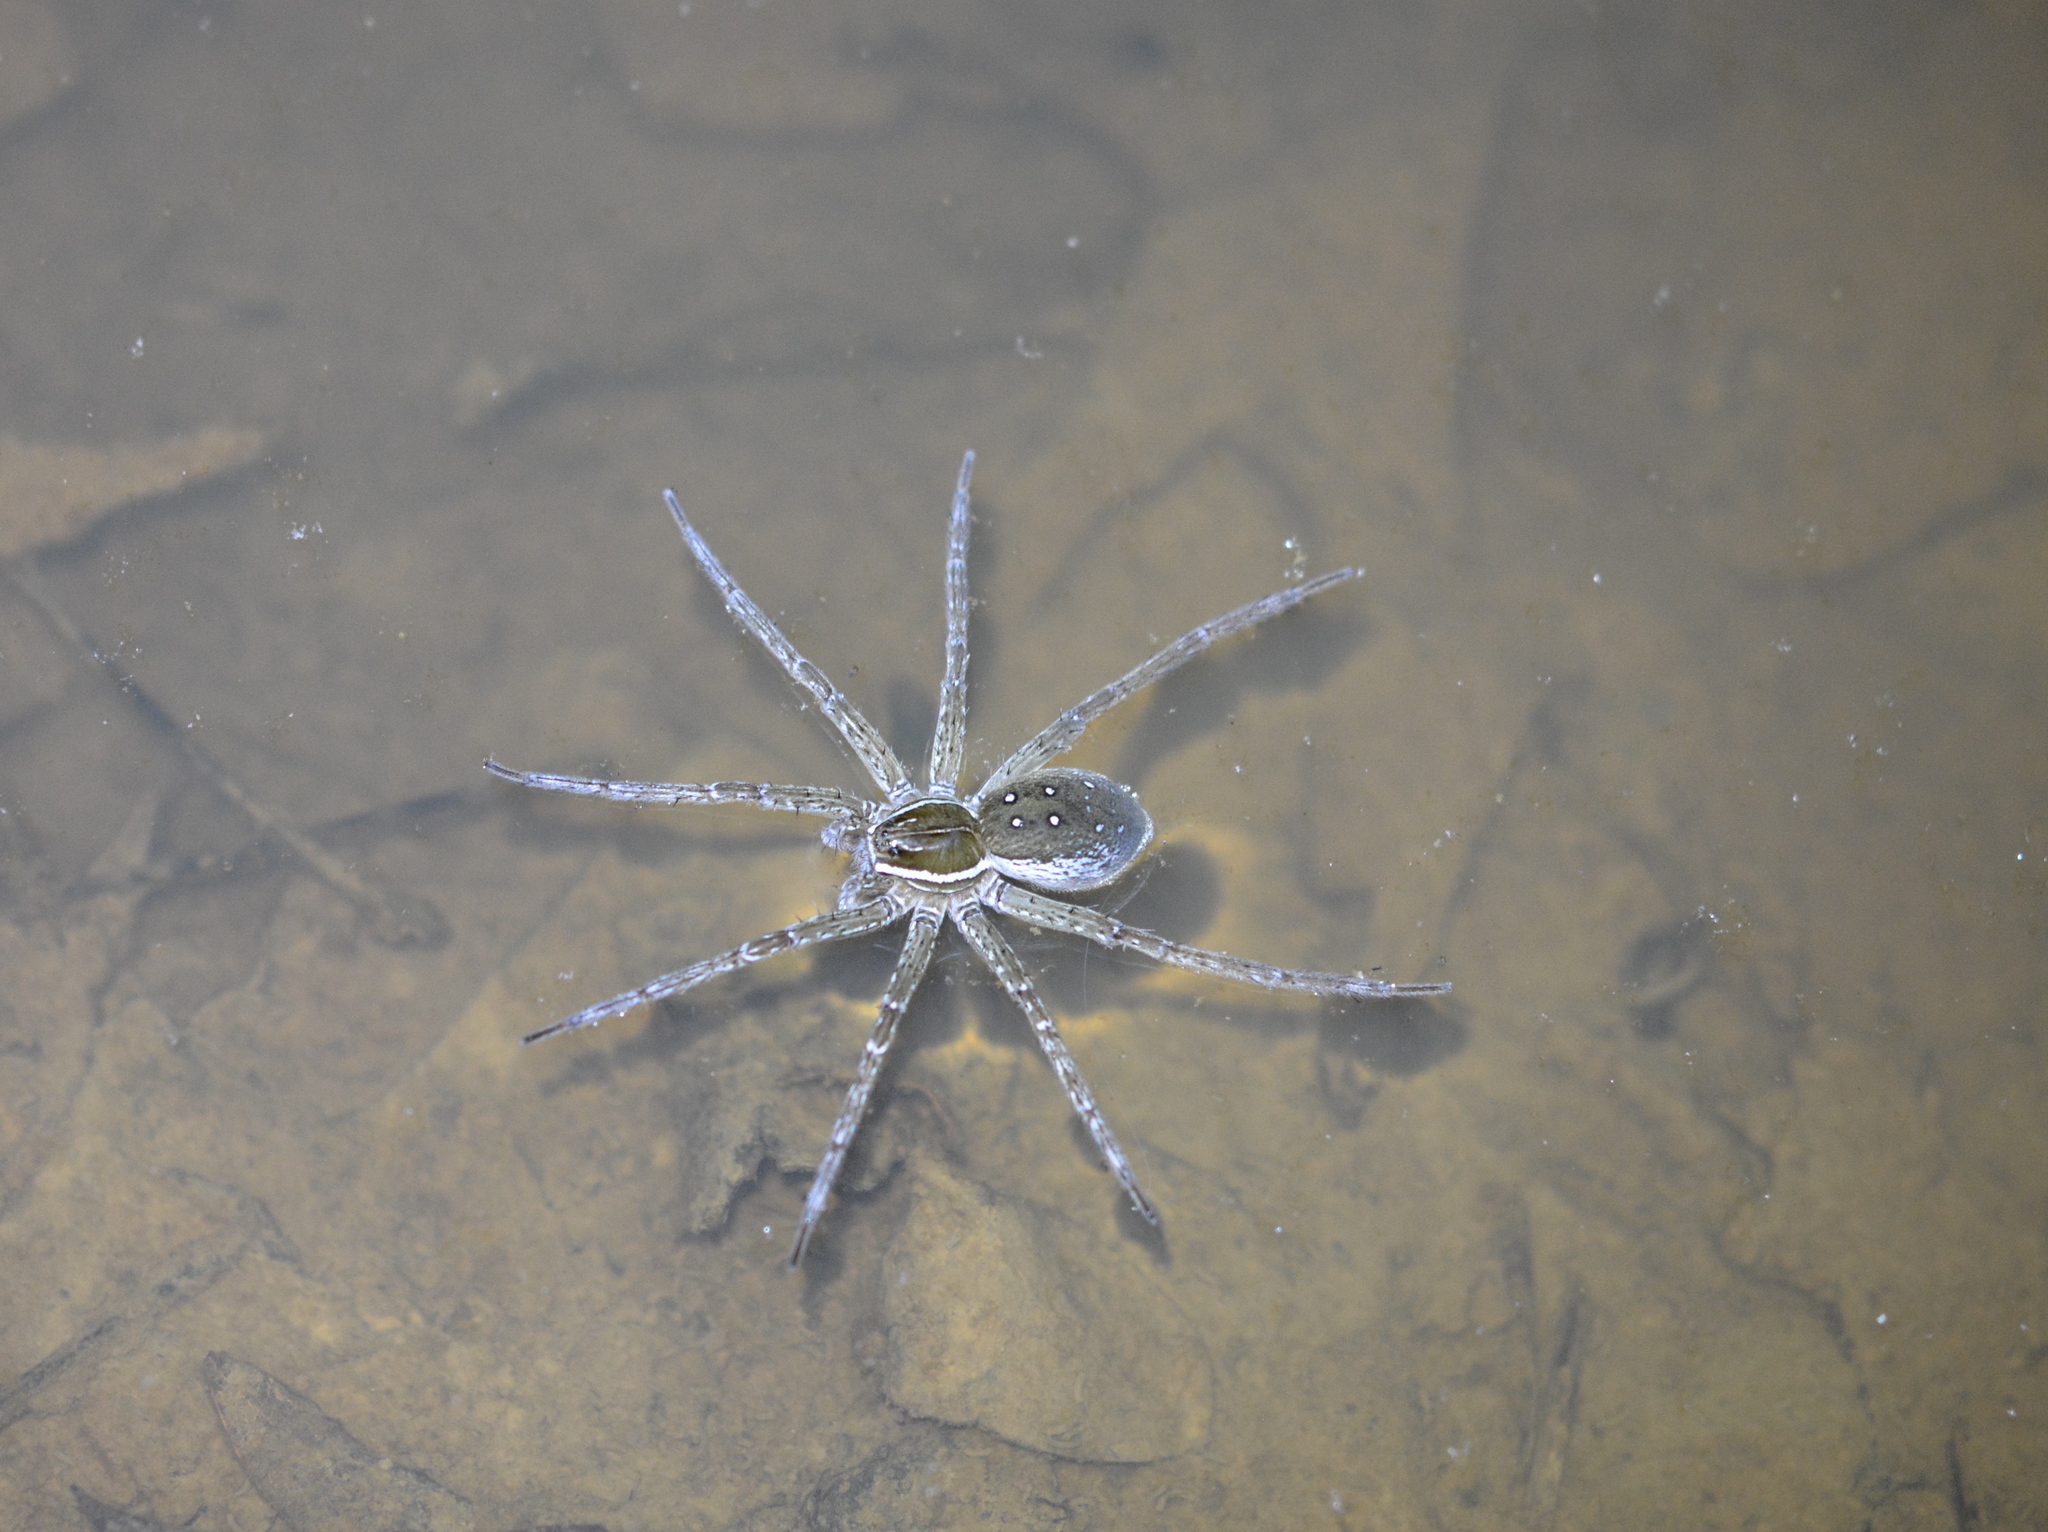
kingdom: Animalia
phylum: Arthropoda
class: Arachnida
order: Araneae
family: Pisauridae
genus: Dolomedes
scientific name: Dolomedes triton
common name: Six-spotted fishing spider
